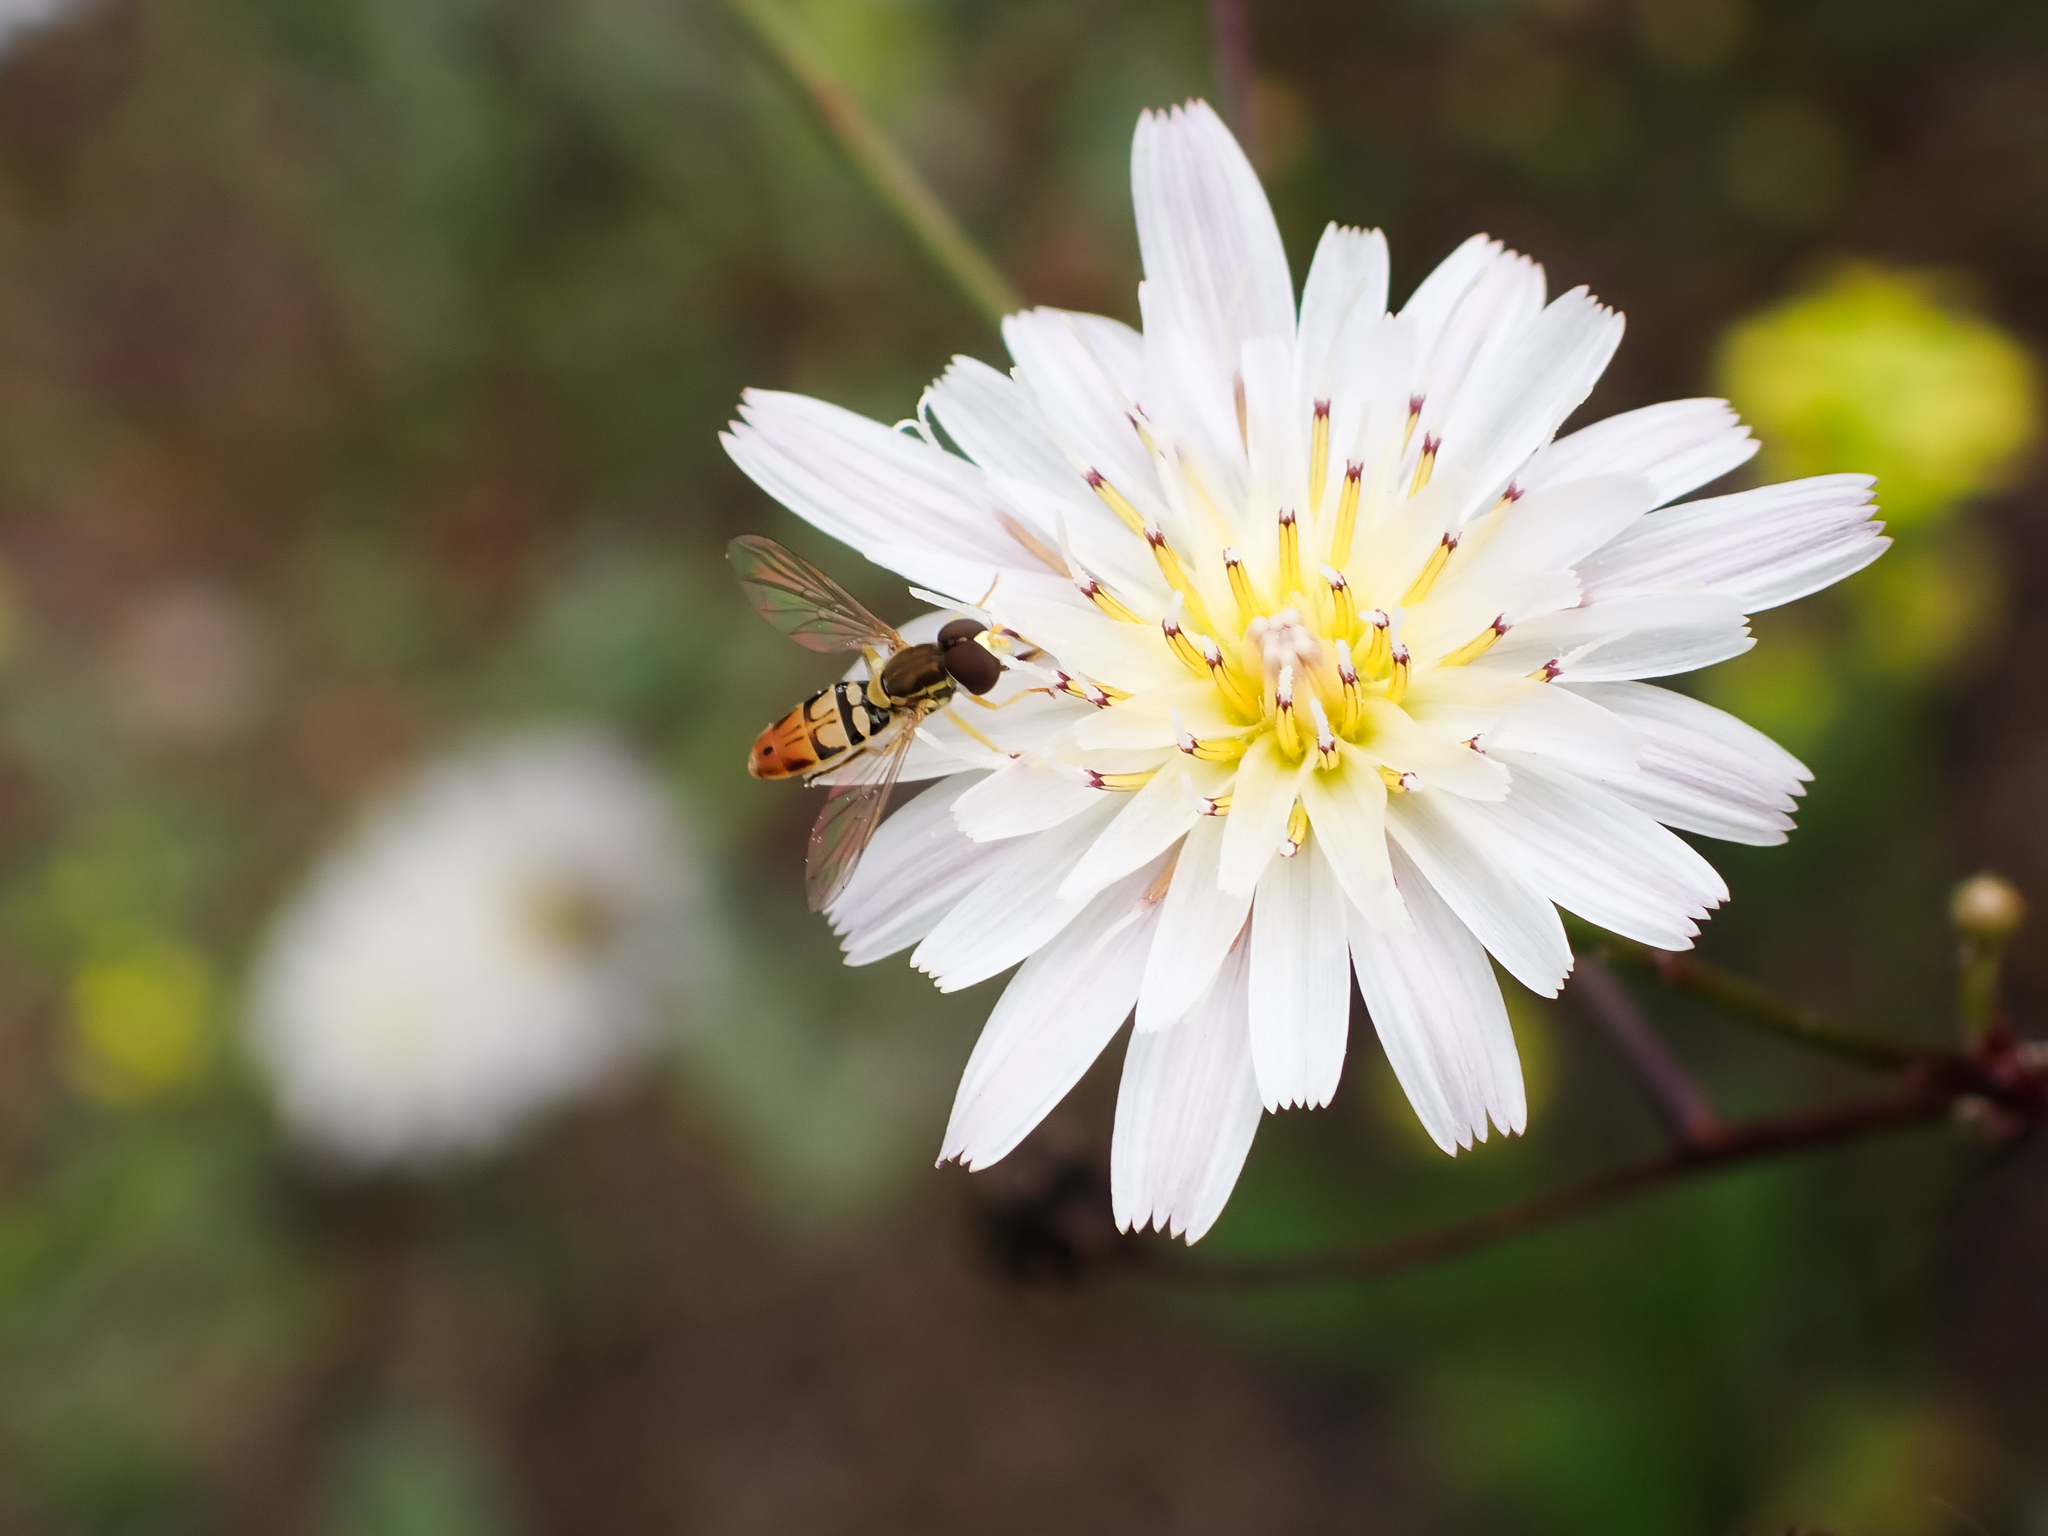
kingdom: Animalia
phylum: Arthropoda
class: Insecta
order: Diptera
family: Syrphidae
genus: Toxomerus
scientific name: Toxomerus marginatus
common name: Syrphid fly
